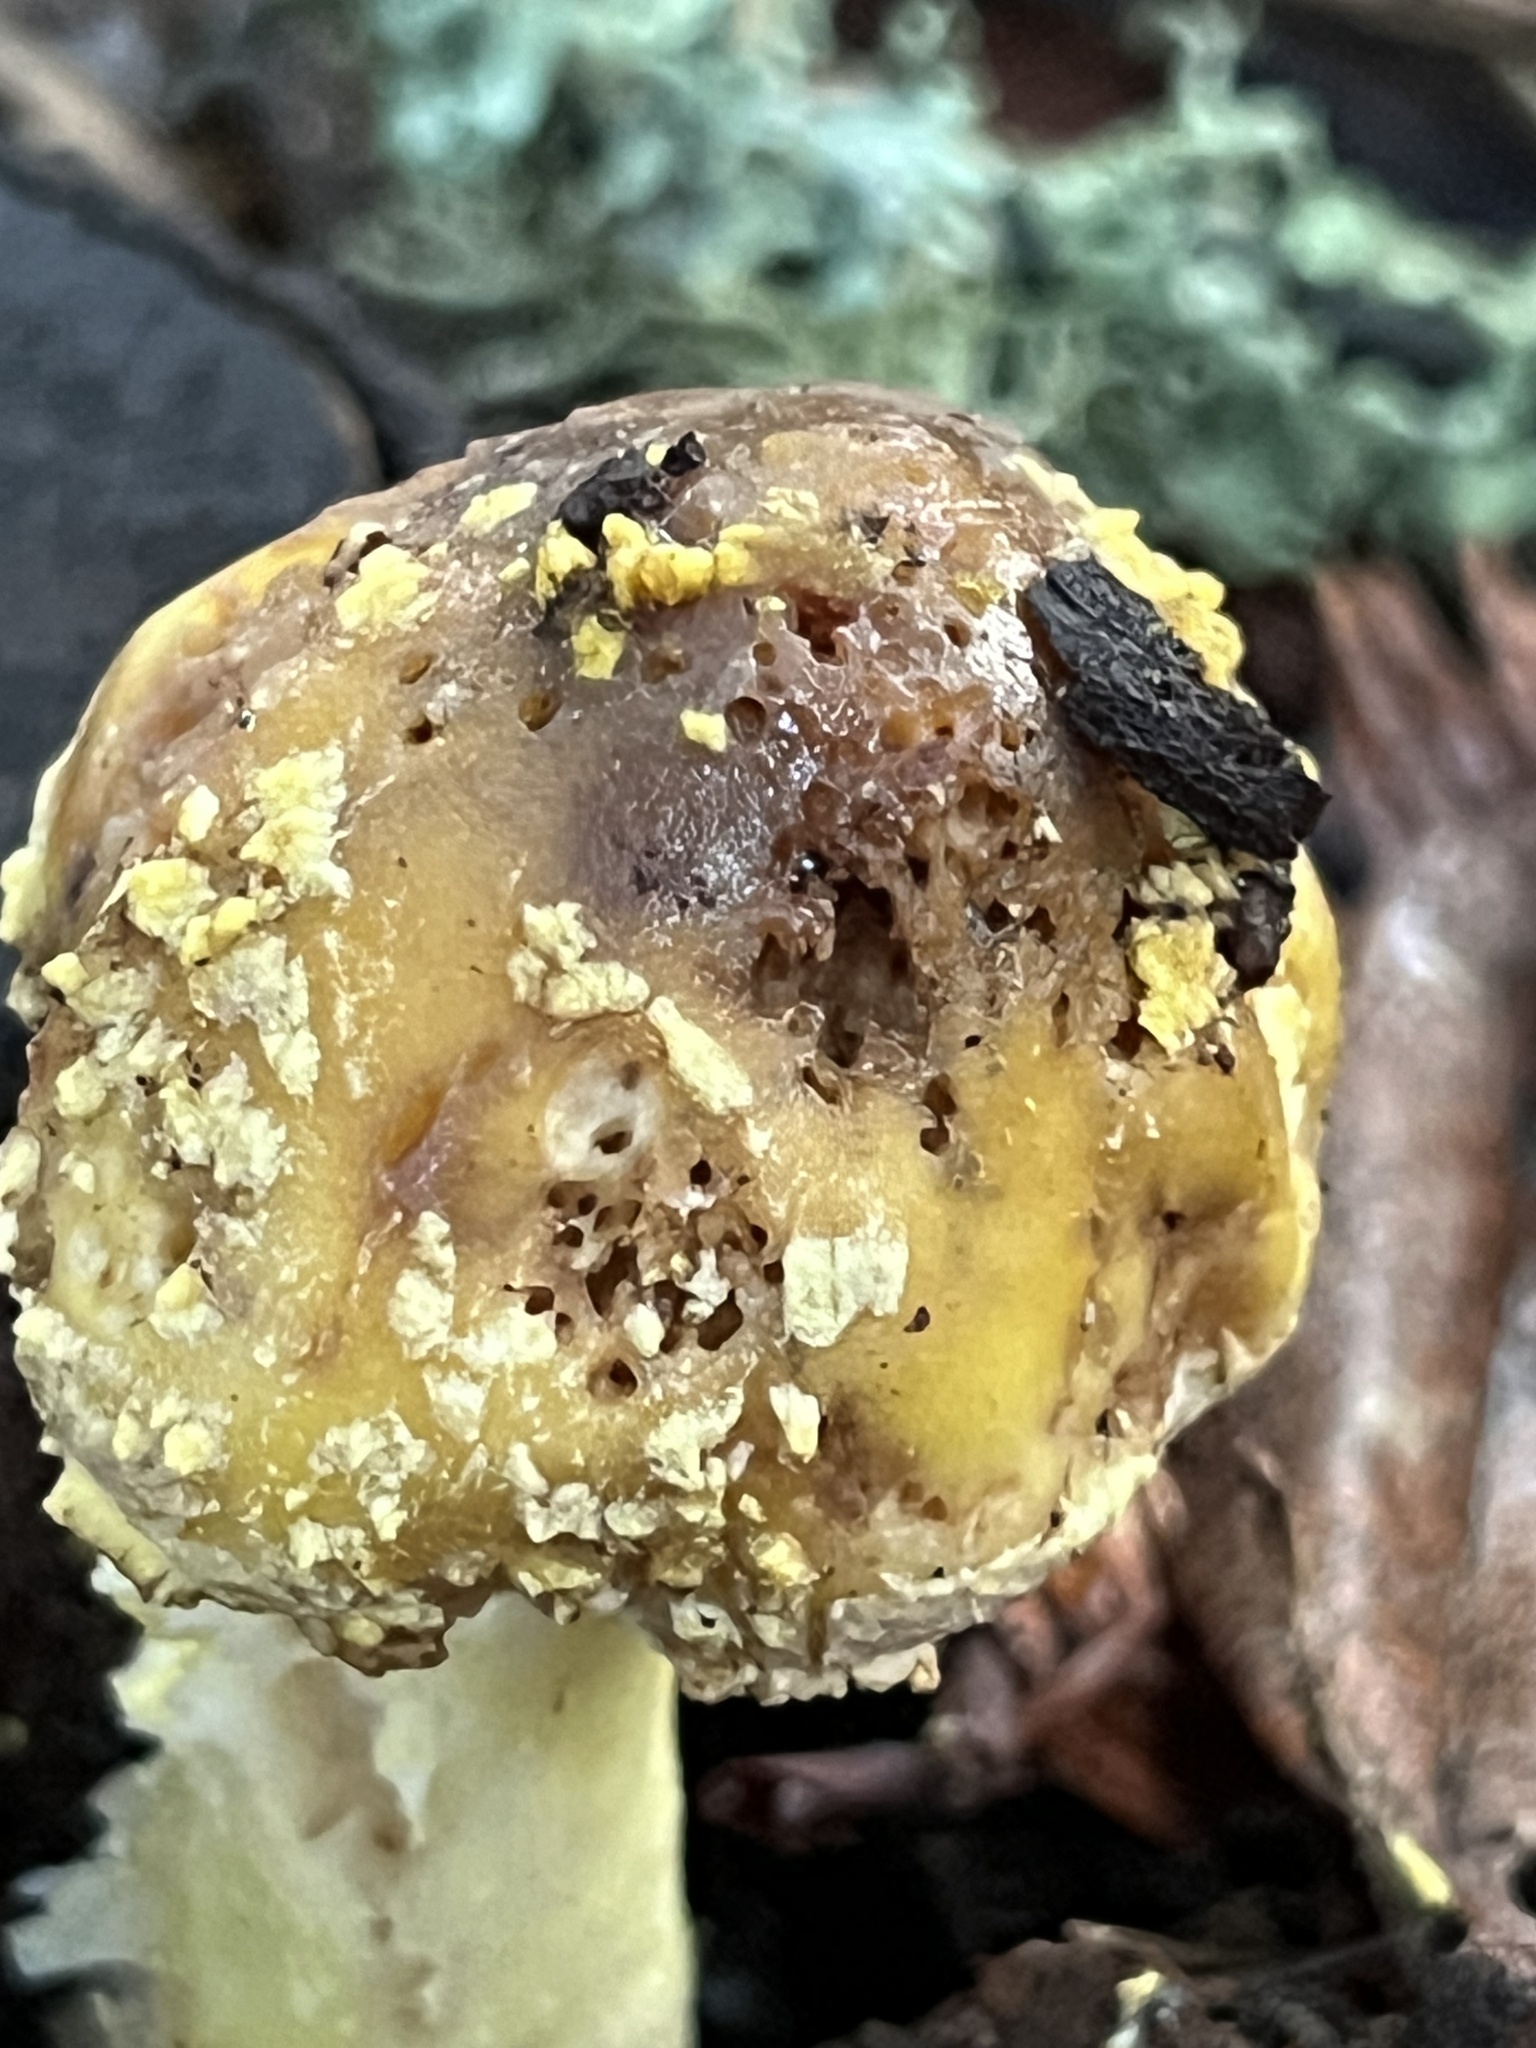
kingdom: Fungi
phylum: Basidiomycota
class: Agaricomycetes
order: Agaricales
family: Amanitaceae
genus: Amanita
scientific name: Amanita augusta
